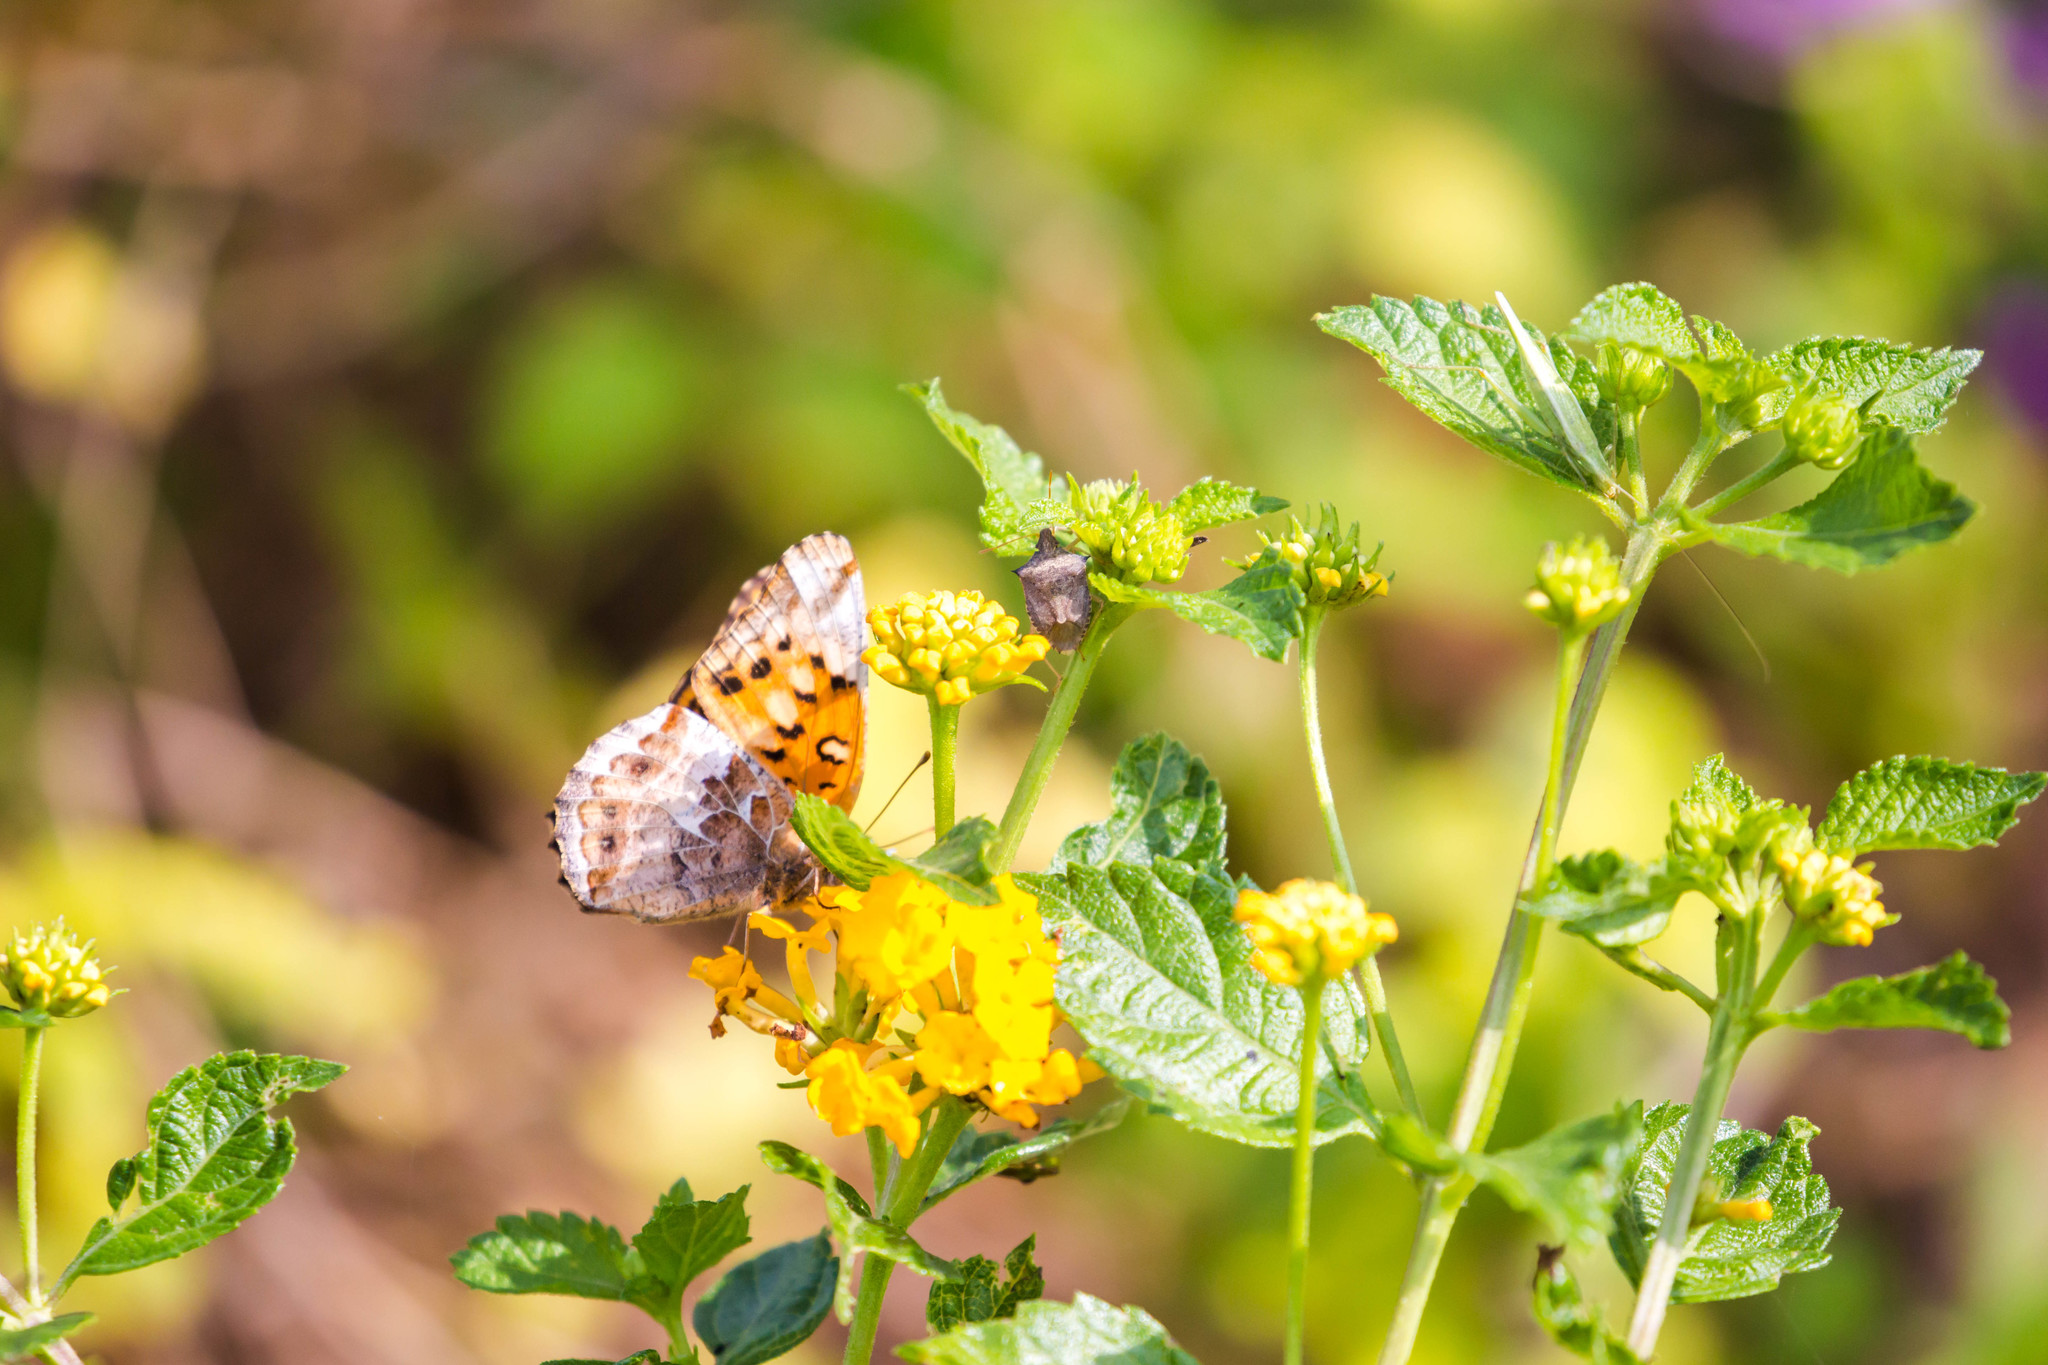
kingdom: Animalia
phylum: Arthropoda
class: Insecta
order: Lepidoptera
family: Nymphalidae
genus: Euptoieta
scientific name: Euptoieta claudia
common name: Variegated fritillary
